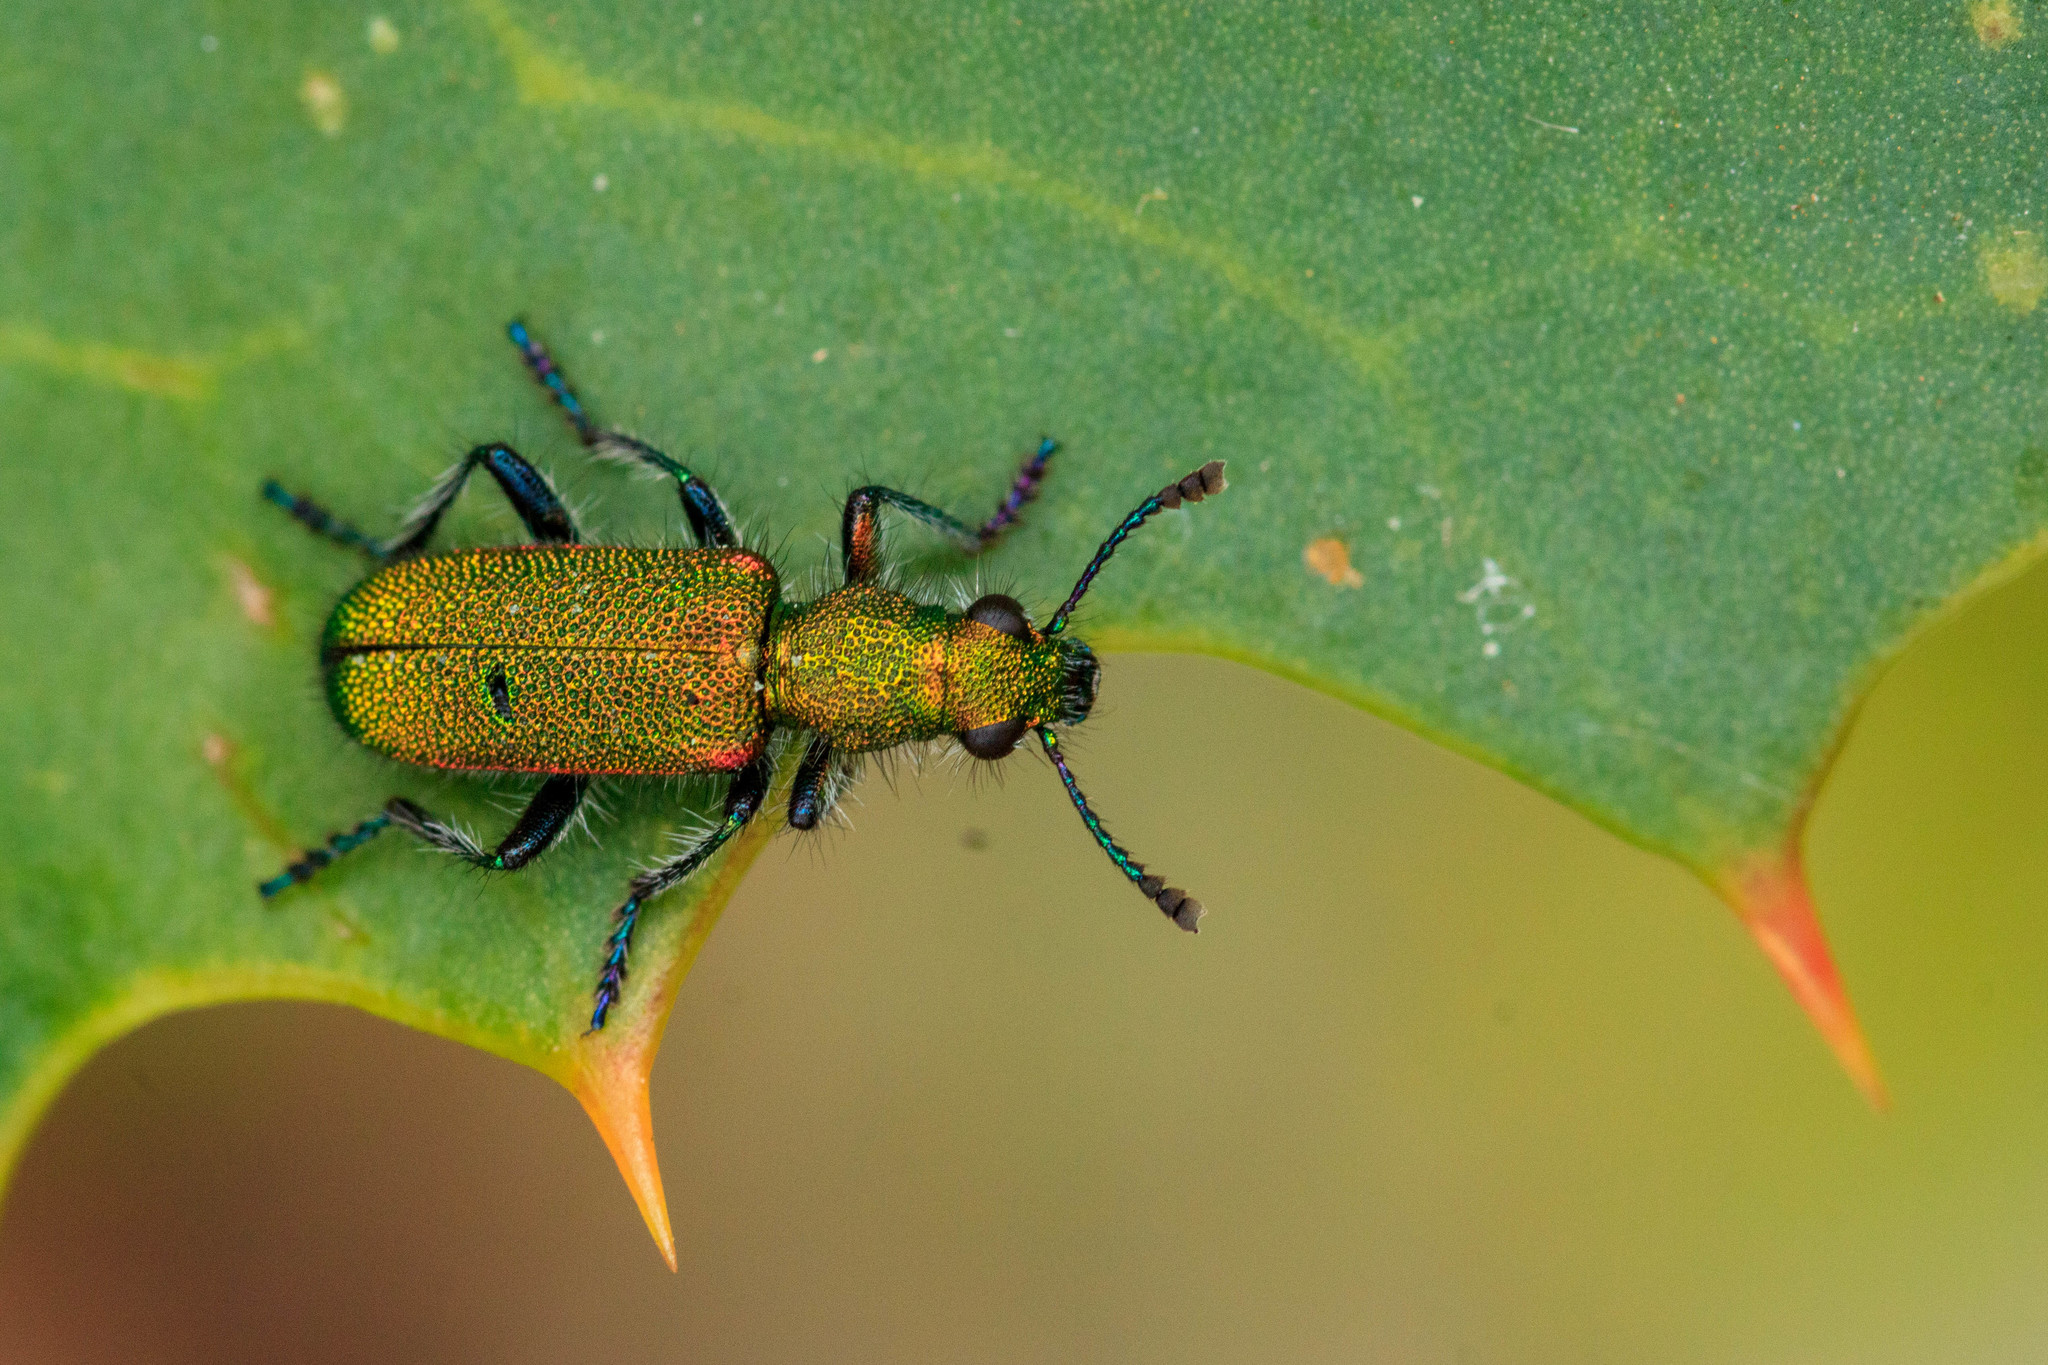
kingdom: Animalia
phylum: Arthropoda
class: Insecta
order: Coleoptera
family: Cleridae
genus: Eleale
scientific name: Eleale
